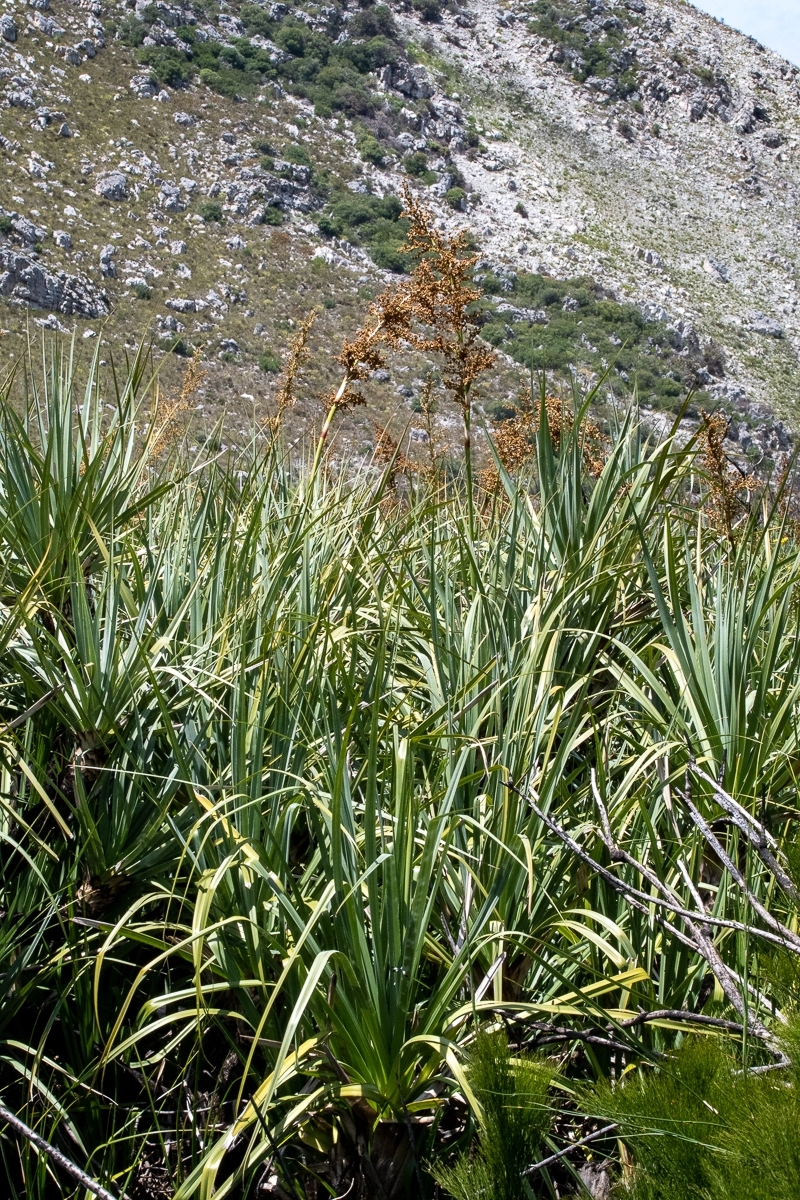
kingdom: Plantae
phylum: Tracheophyta
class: Liliopsida
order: Poales
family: Thurniaceae
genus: Prionium
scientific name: Prionium serratum
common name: Palmiet
